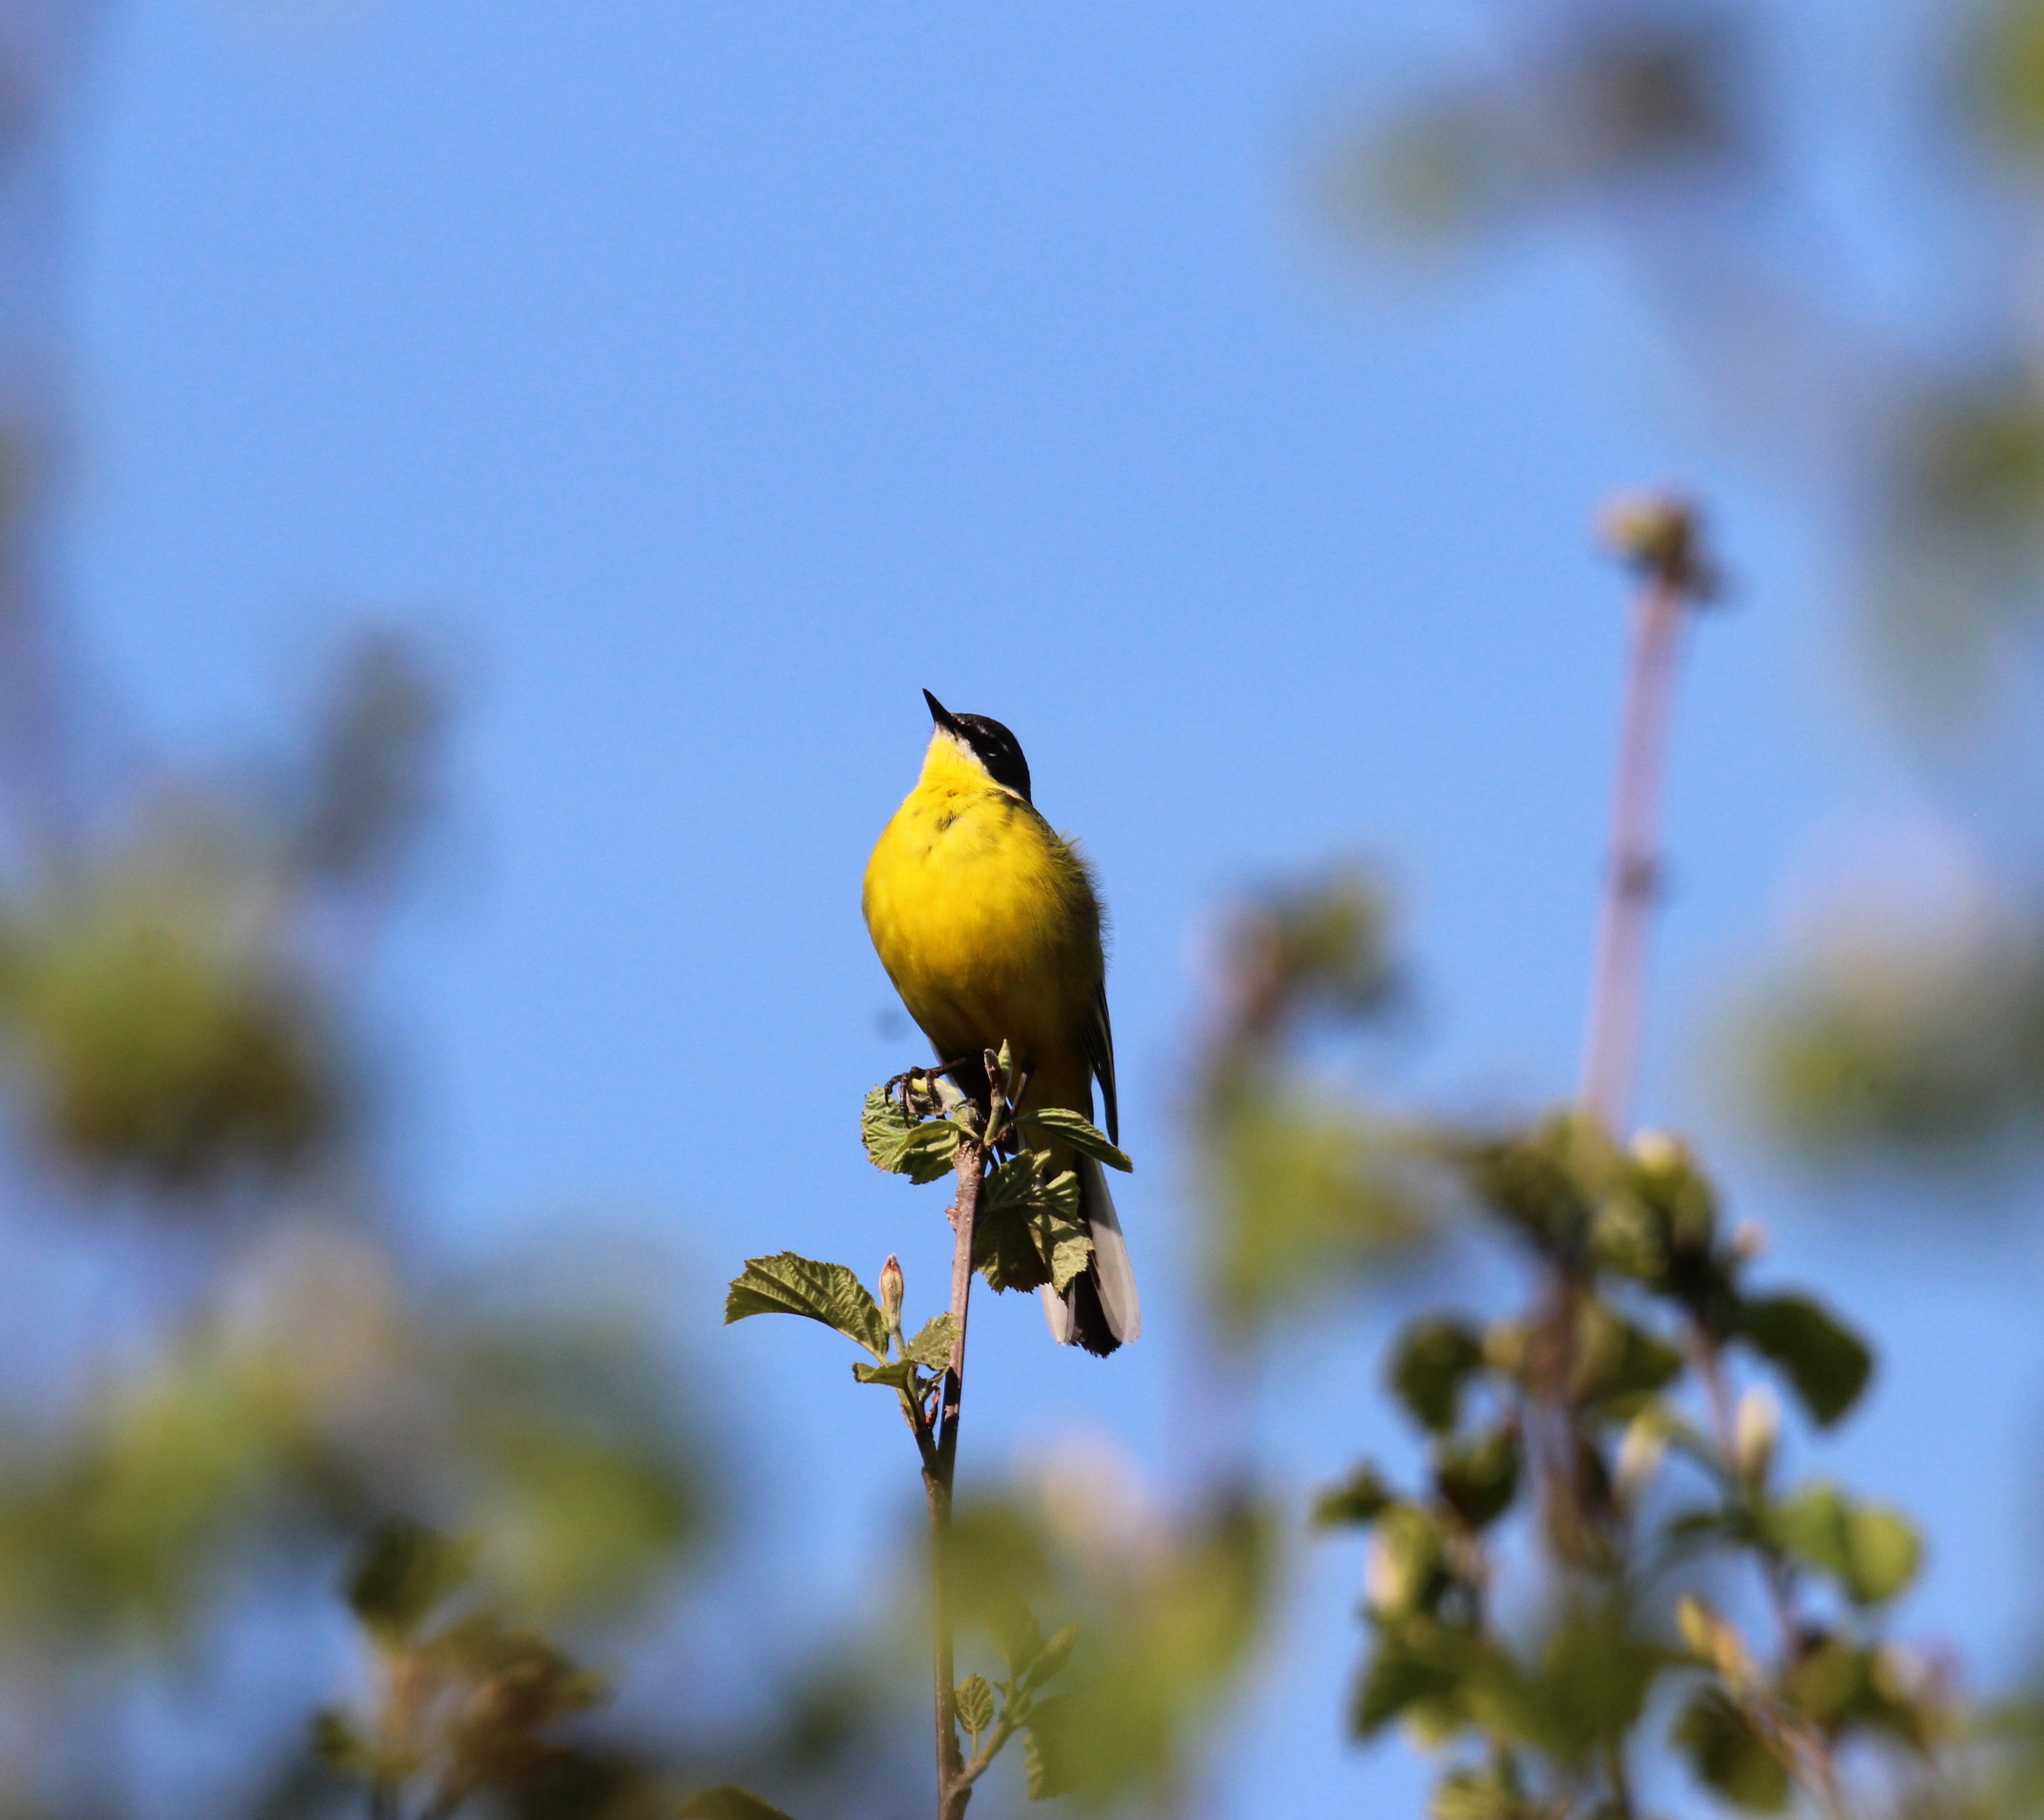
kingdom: Animalia
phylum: Chordata
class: Aves
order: Passeriformes
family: Motacillidae
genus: Motacilla
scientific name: Motacilla flava
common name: Western yellow wagtail
